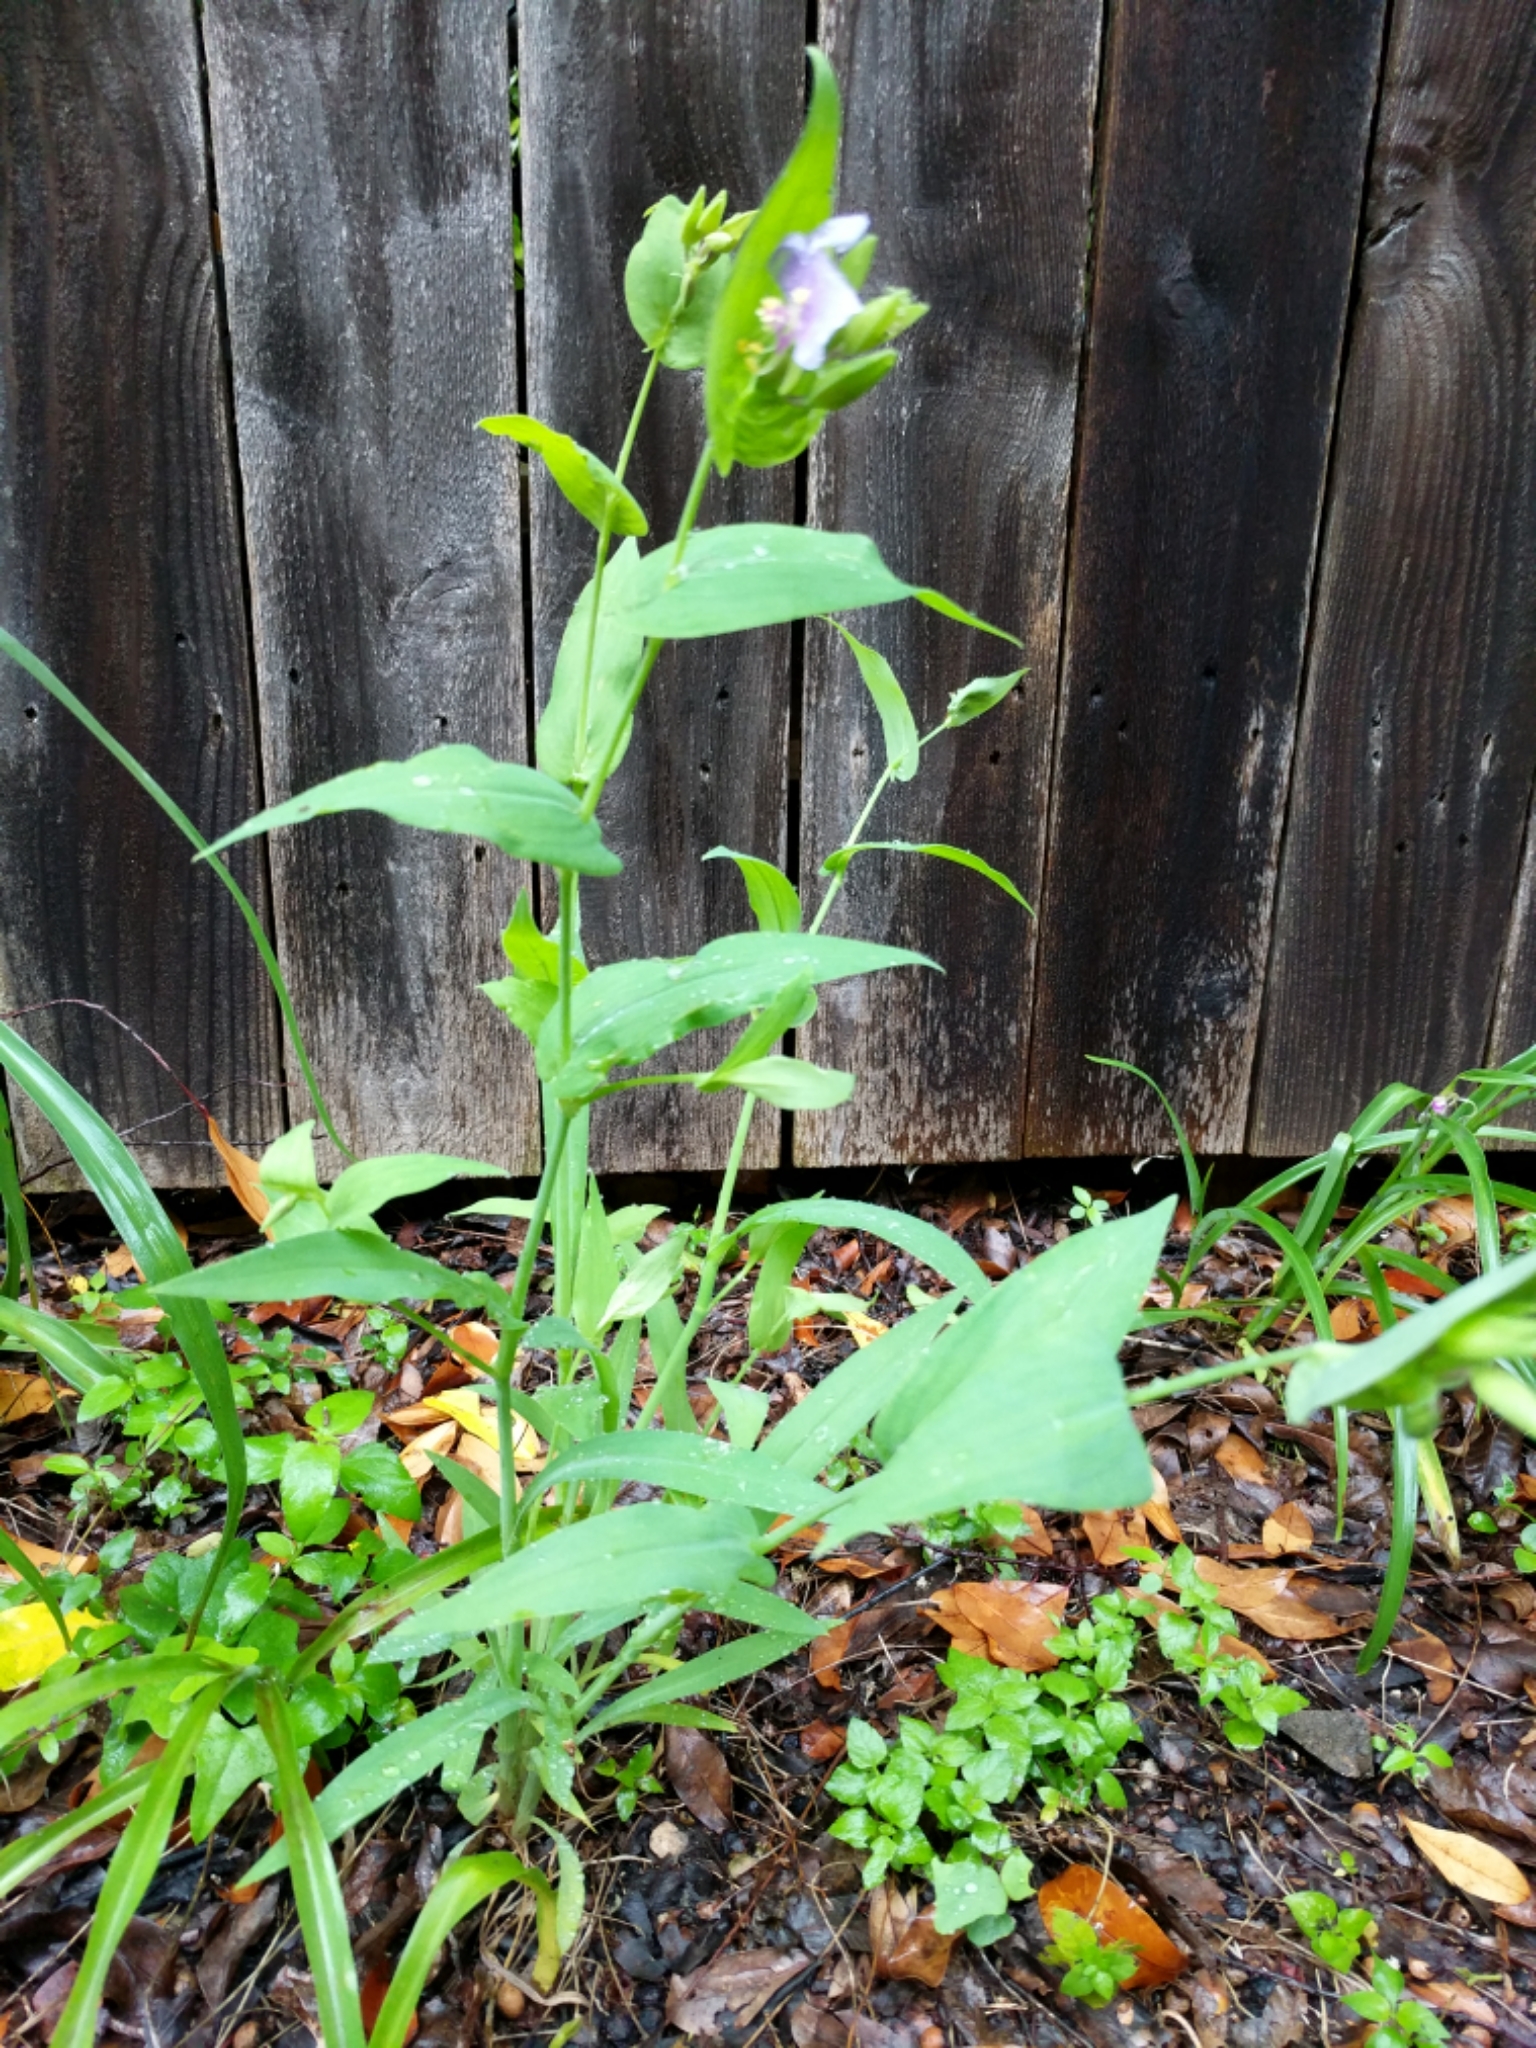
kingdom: Plantae
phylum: Tracheophyta
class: Liliopsida
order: Commelinales
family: Commelinaceae
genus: Tinantia
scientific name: Tinantia anomala
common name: False dayflower
